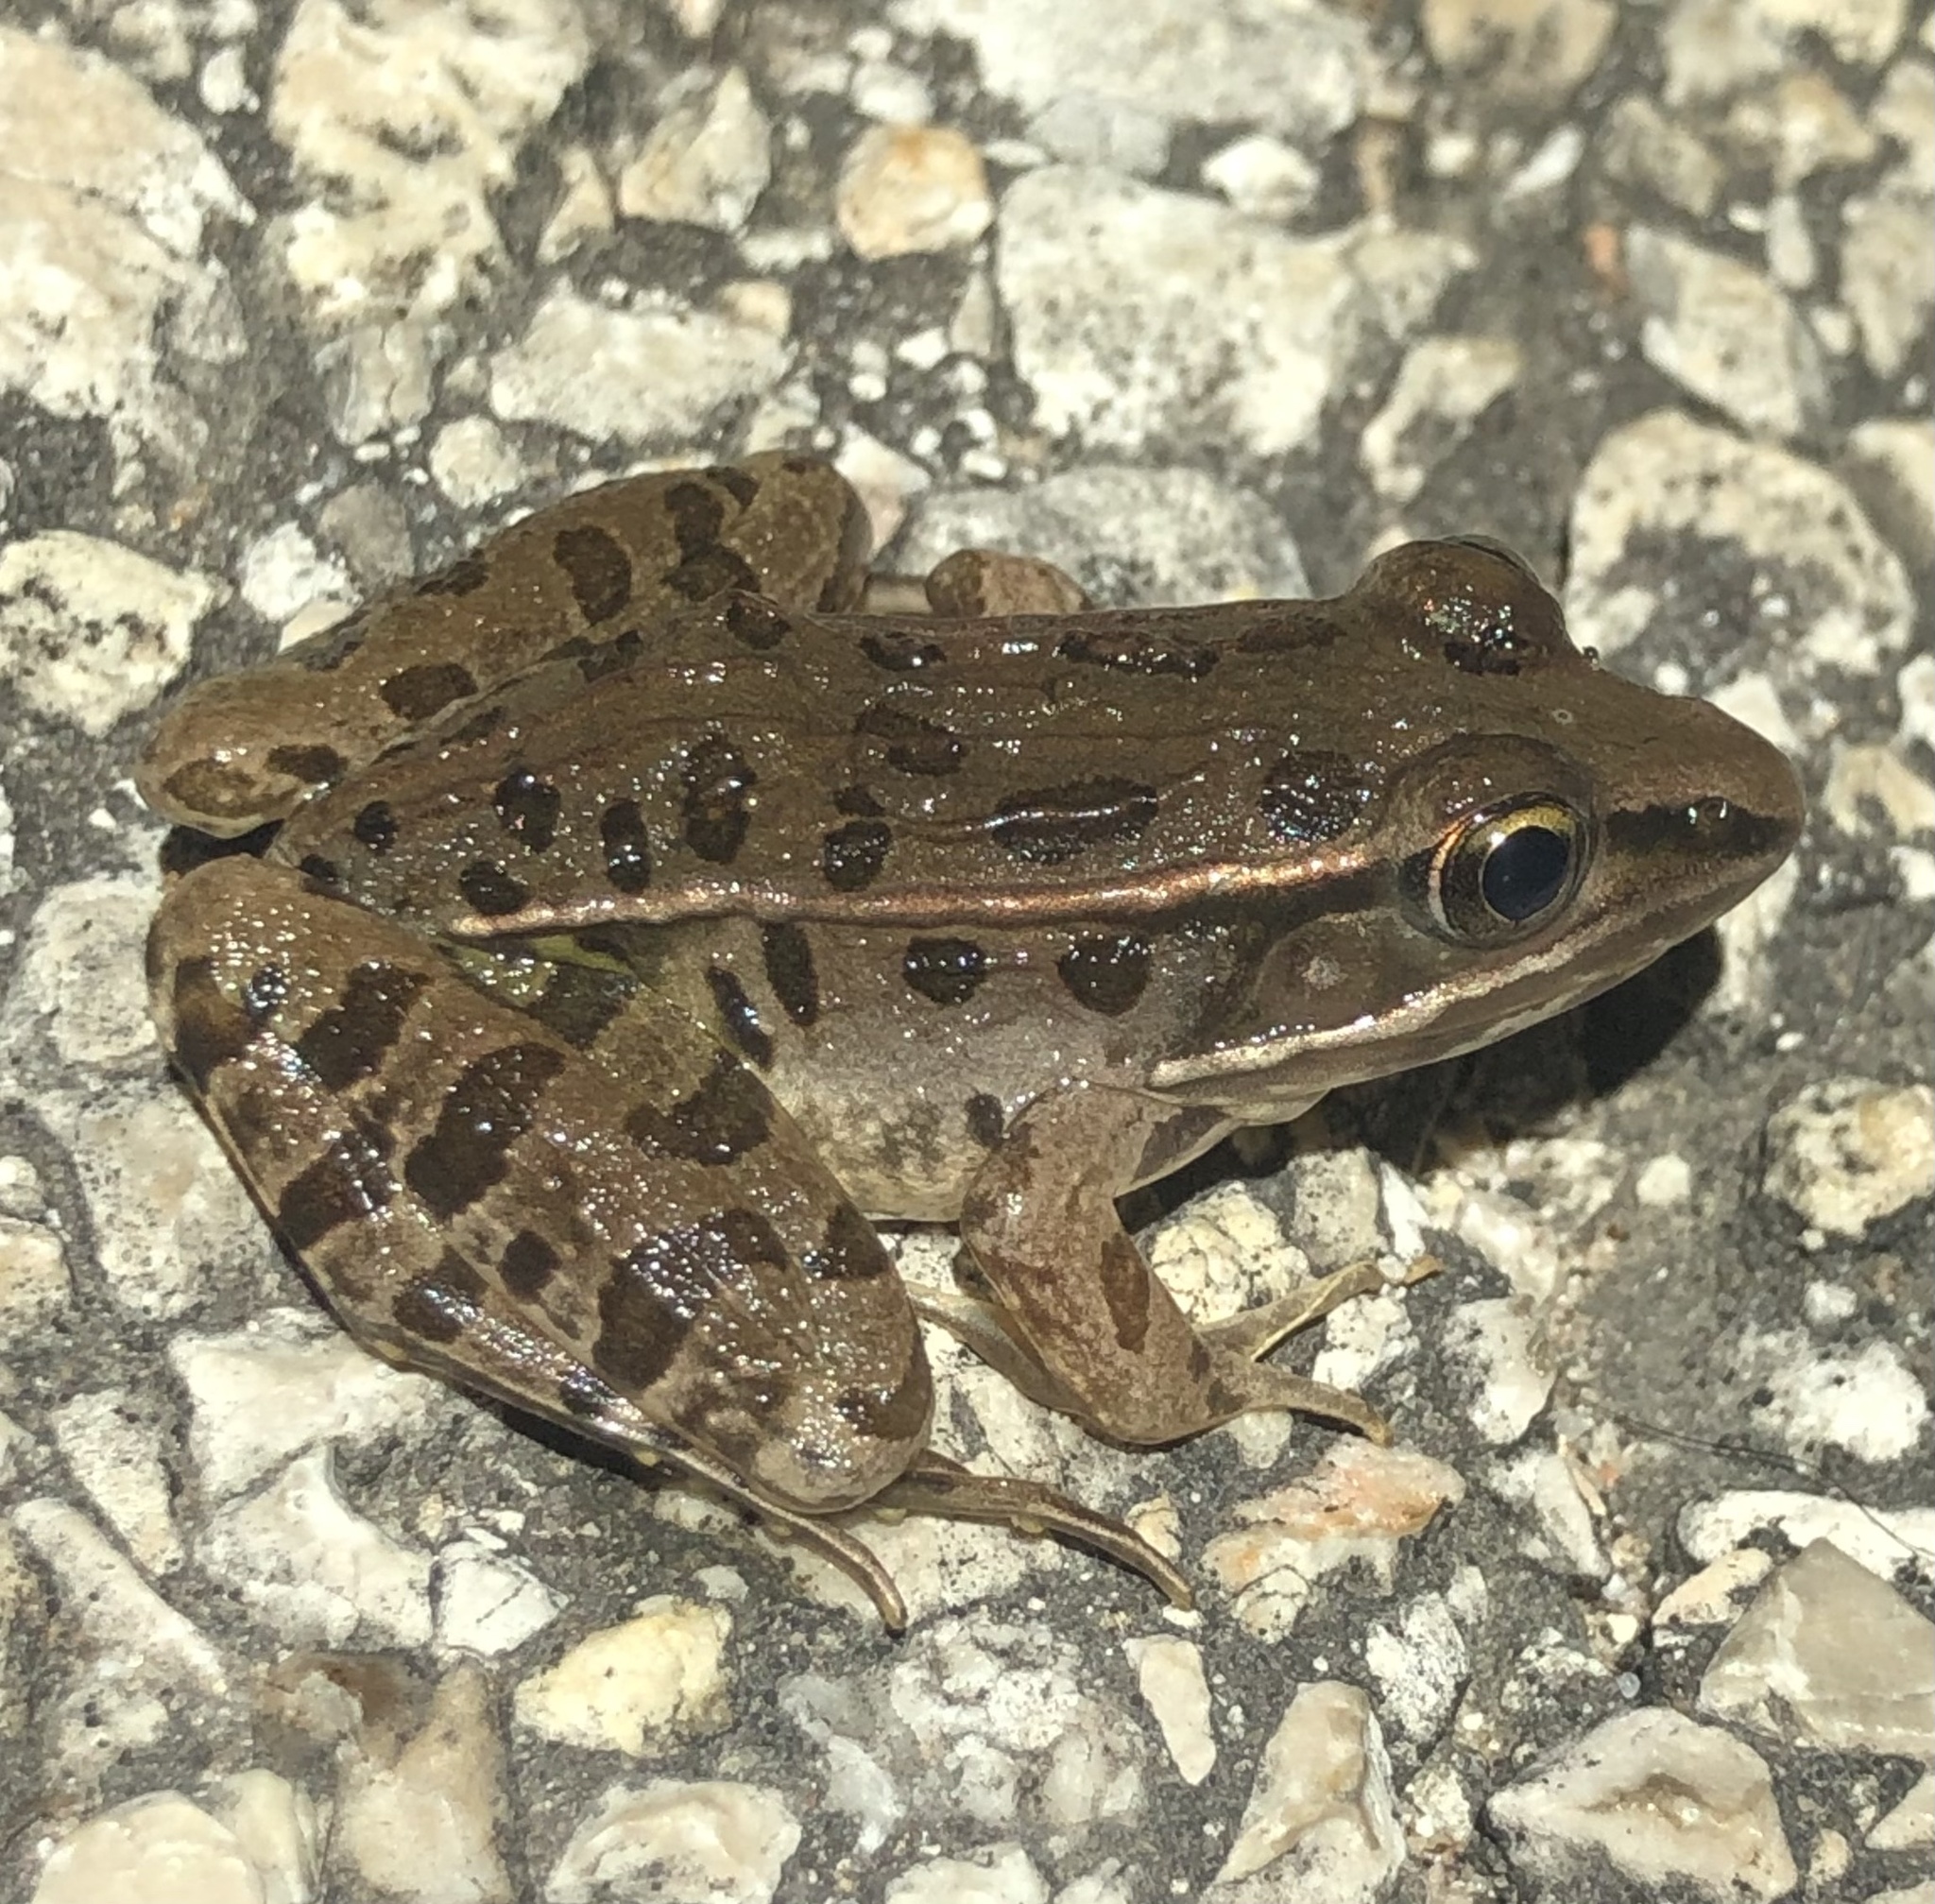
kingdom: Animalia
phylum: Chordata
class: Amphibia
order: Anura
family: Ranidae
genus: Lithobates
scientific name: Lithobates sphenocephalus
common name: Southern leopard frog
